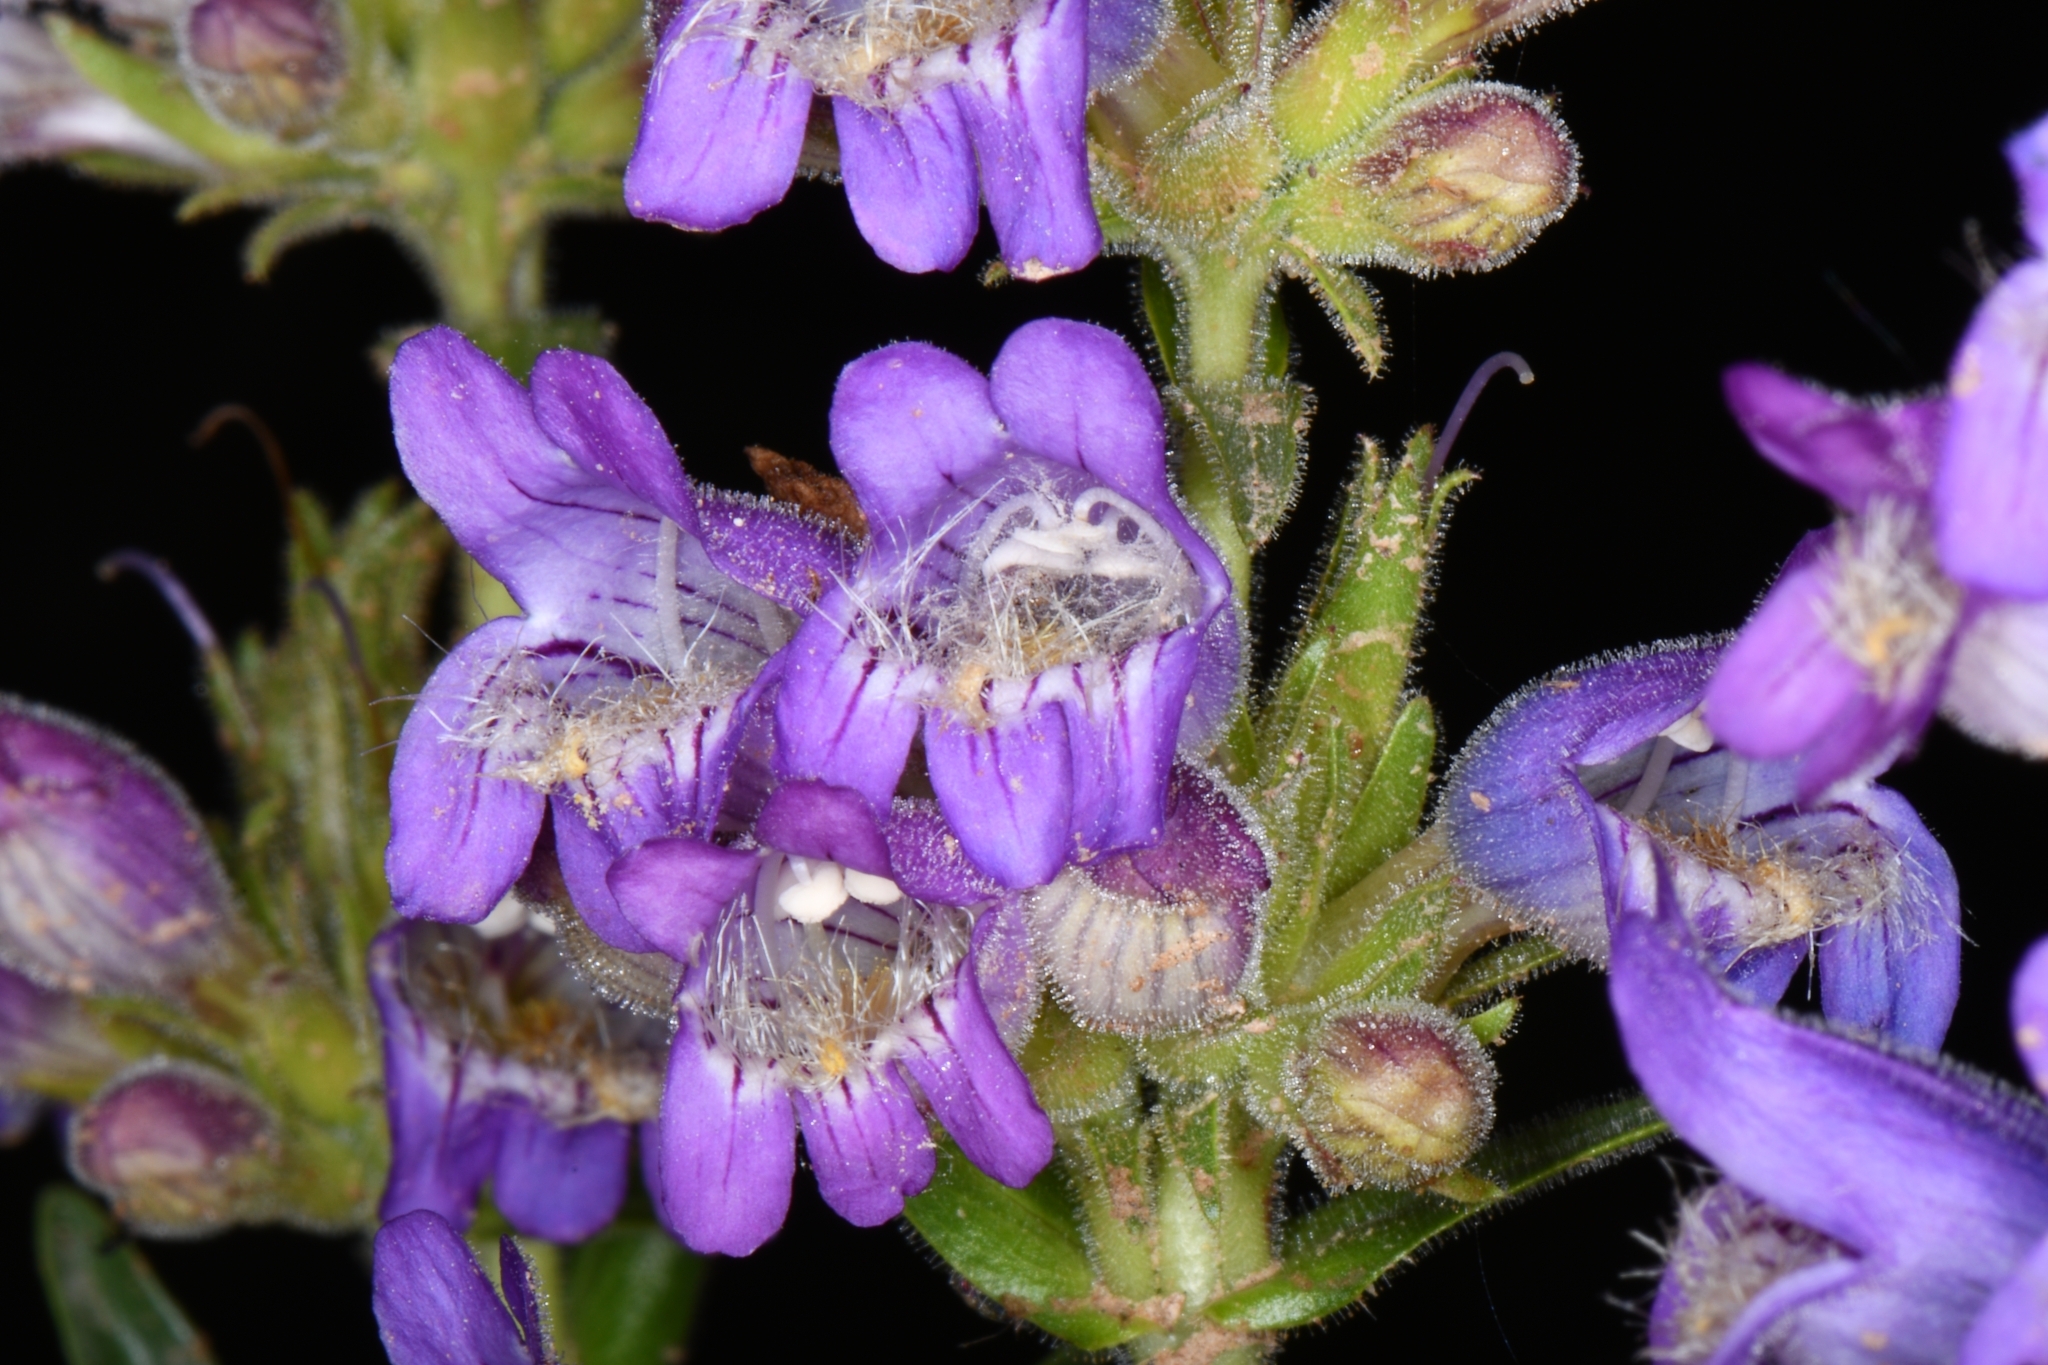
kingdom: Plantae
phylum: Tracheophyta
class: Magnoliopsida
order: Lamiales
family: Plantaginaceae
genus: Penstemon
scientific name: Penstemon atwoodii
